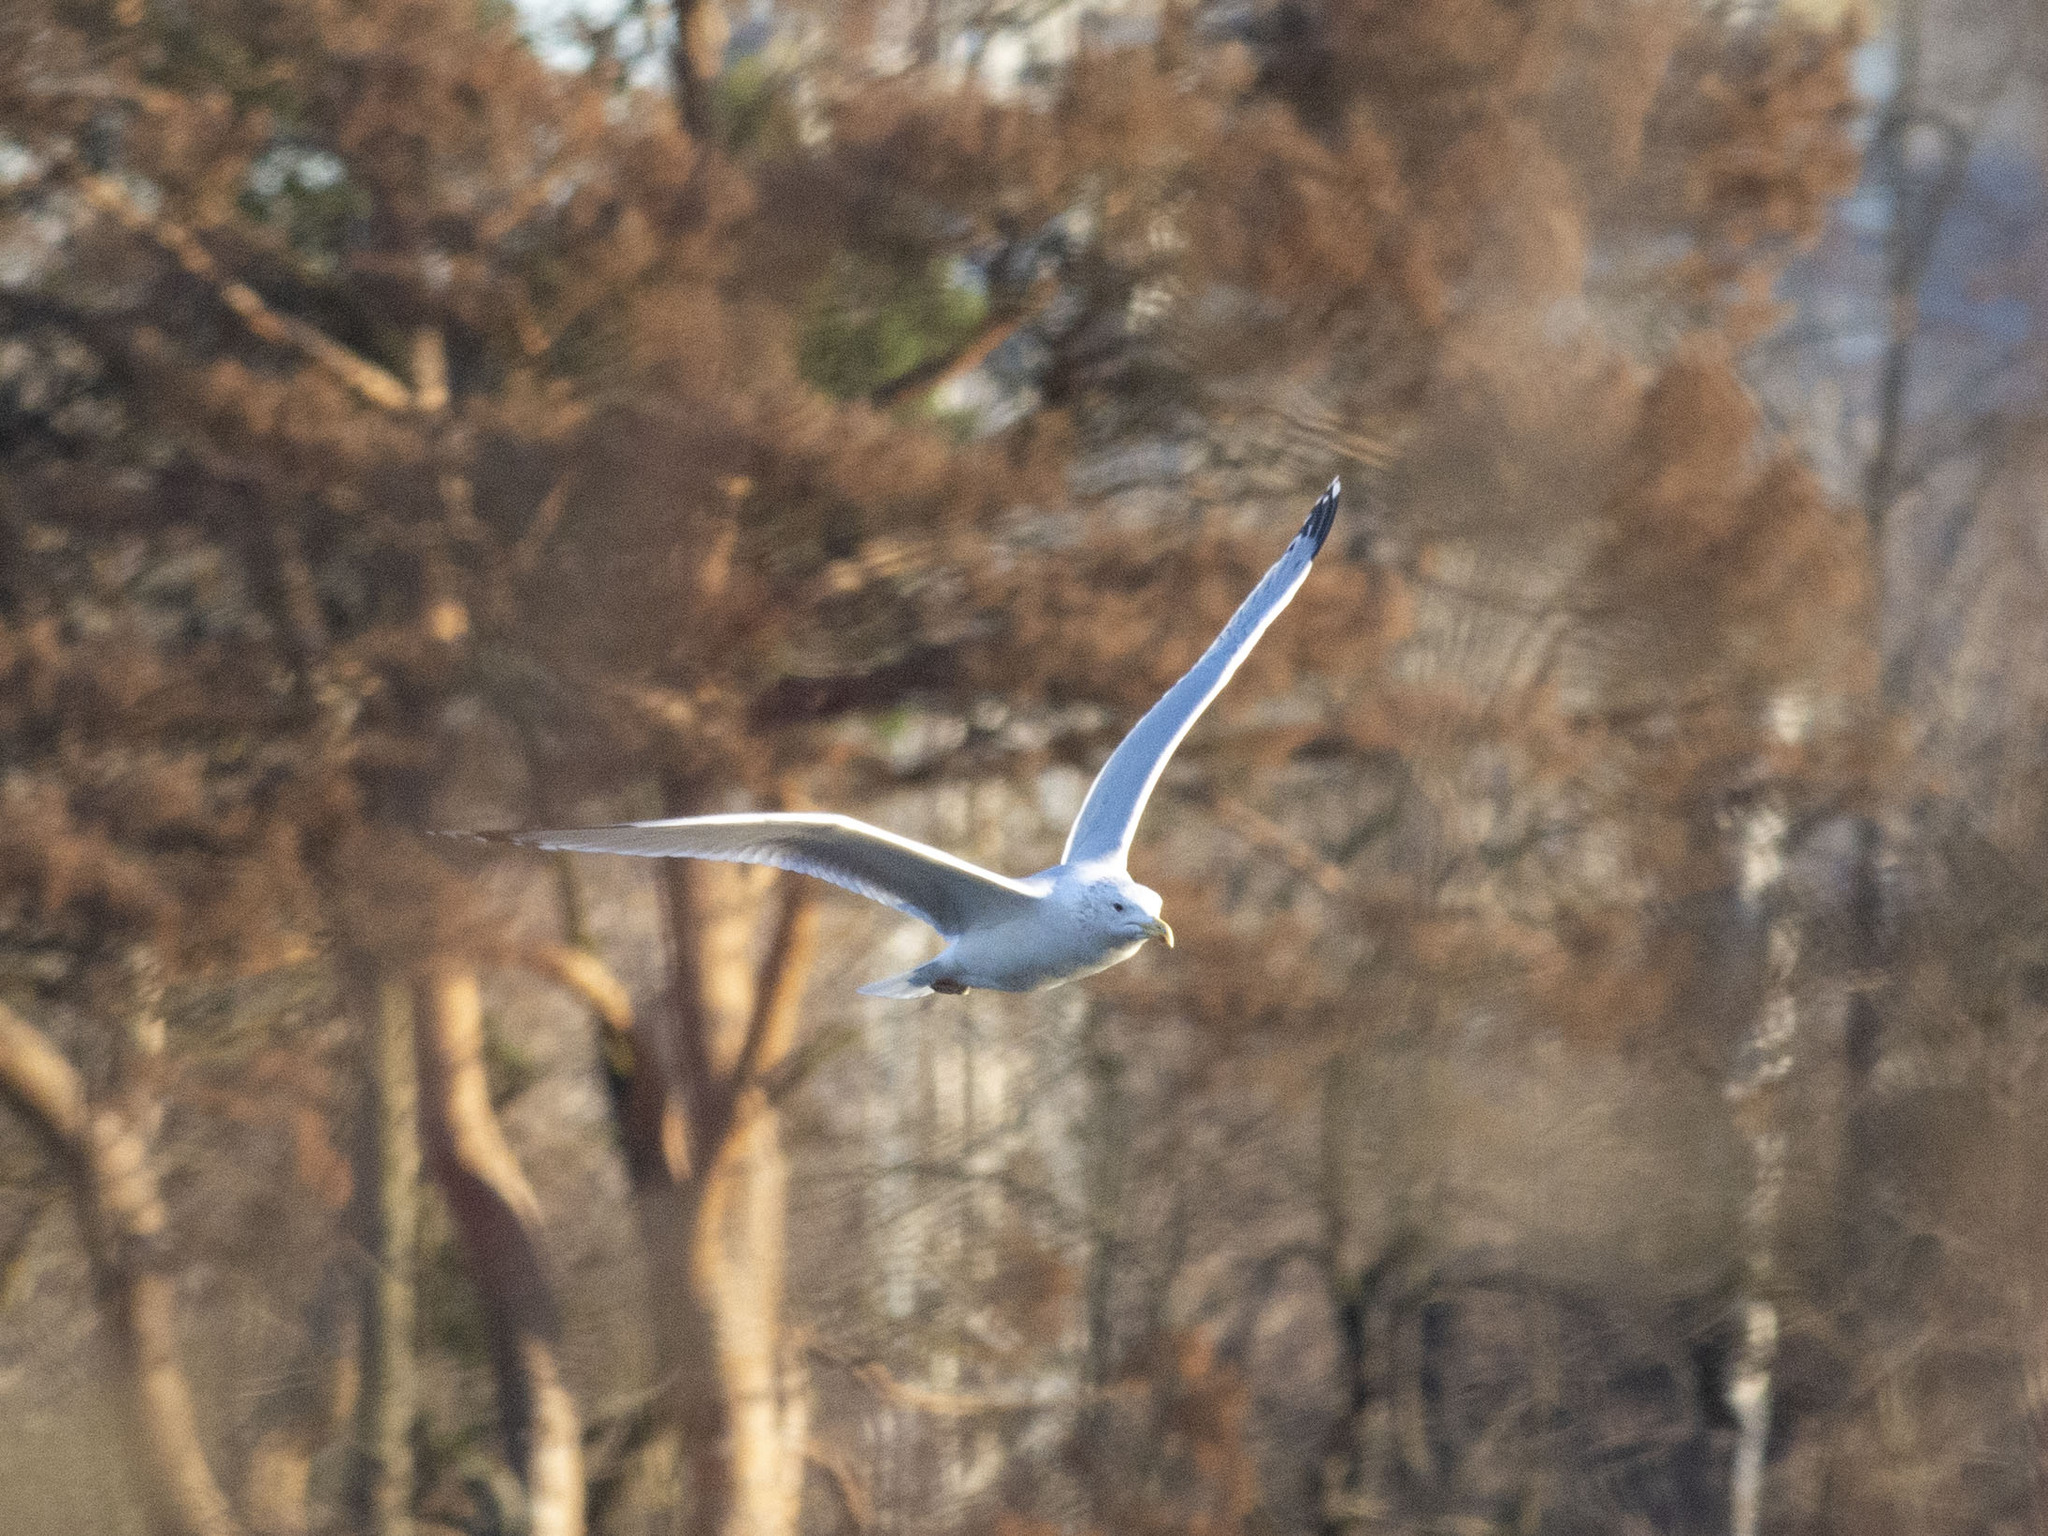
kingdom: Animalia
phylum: Chordata
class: Aves
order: Charadriiformes
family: Laridae
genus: Larus
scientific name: Larus argentatus
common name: Herring gull
